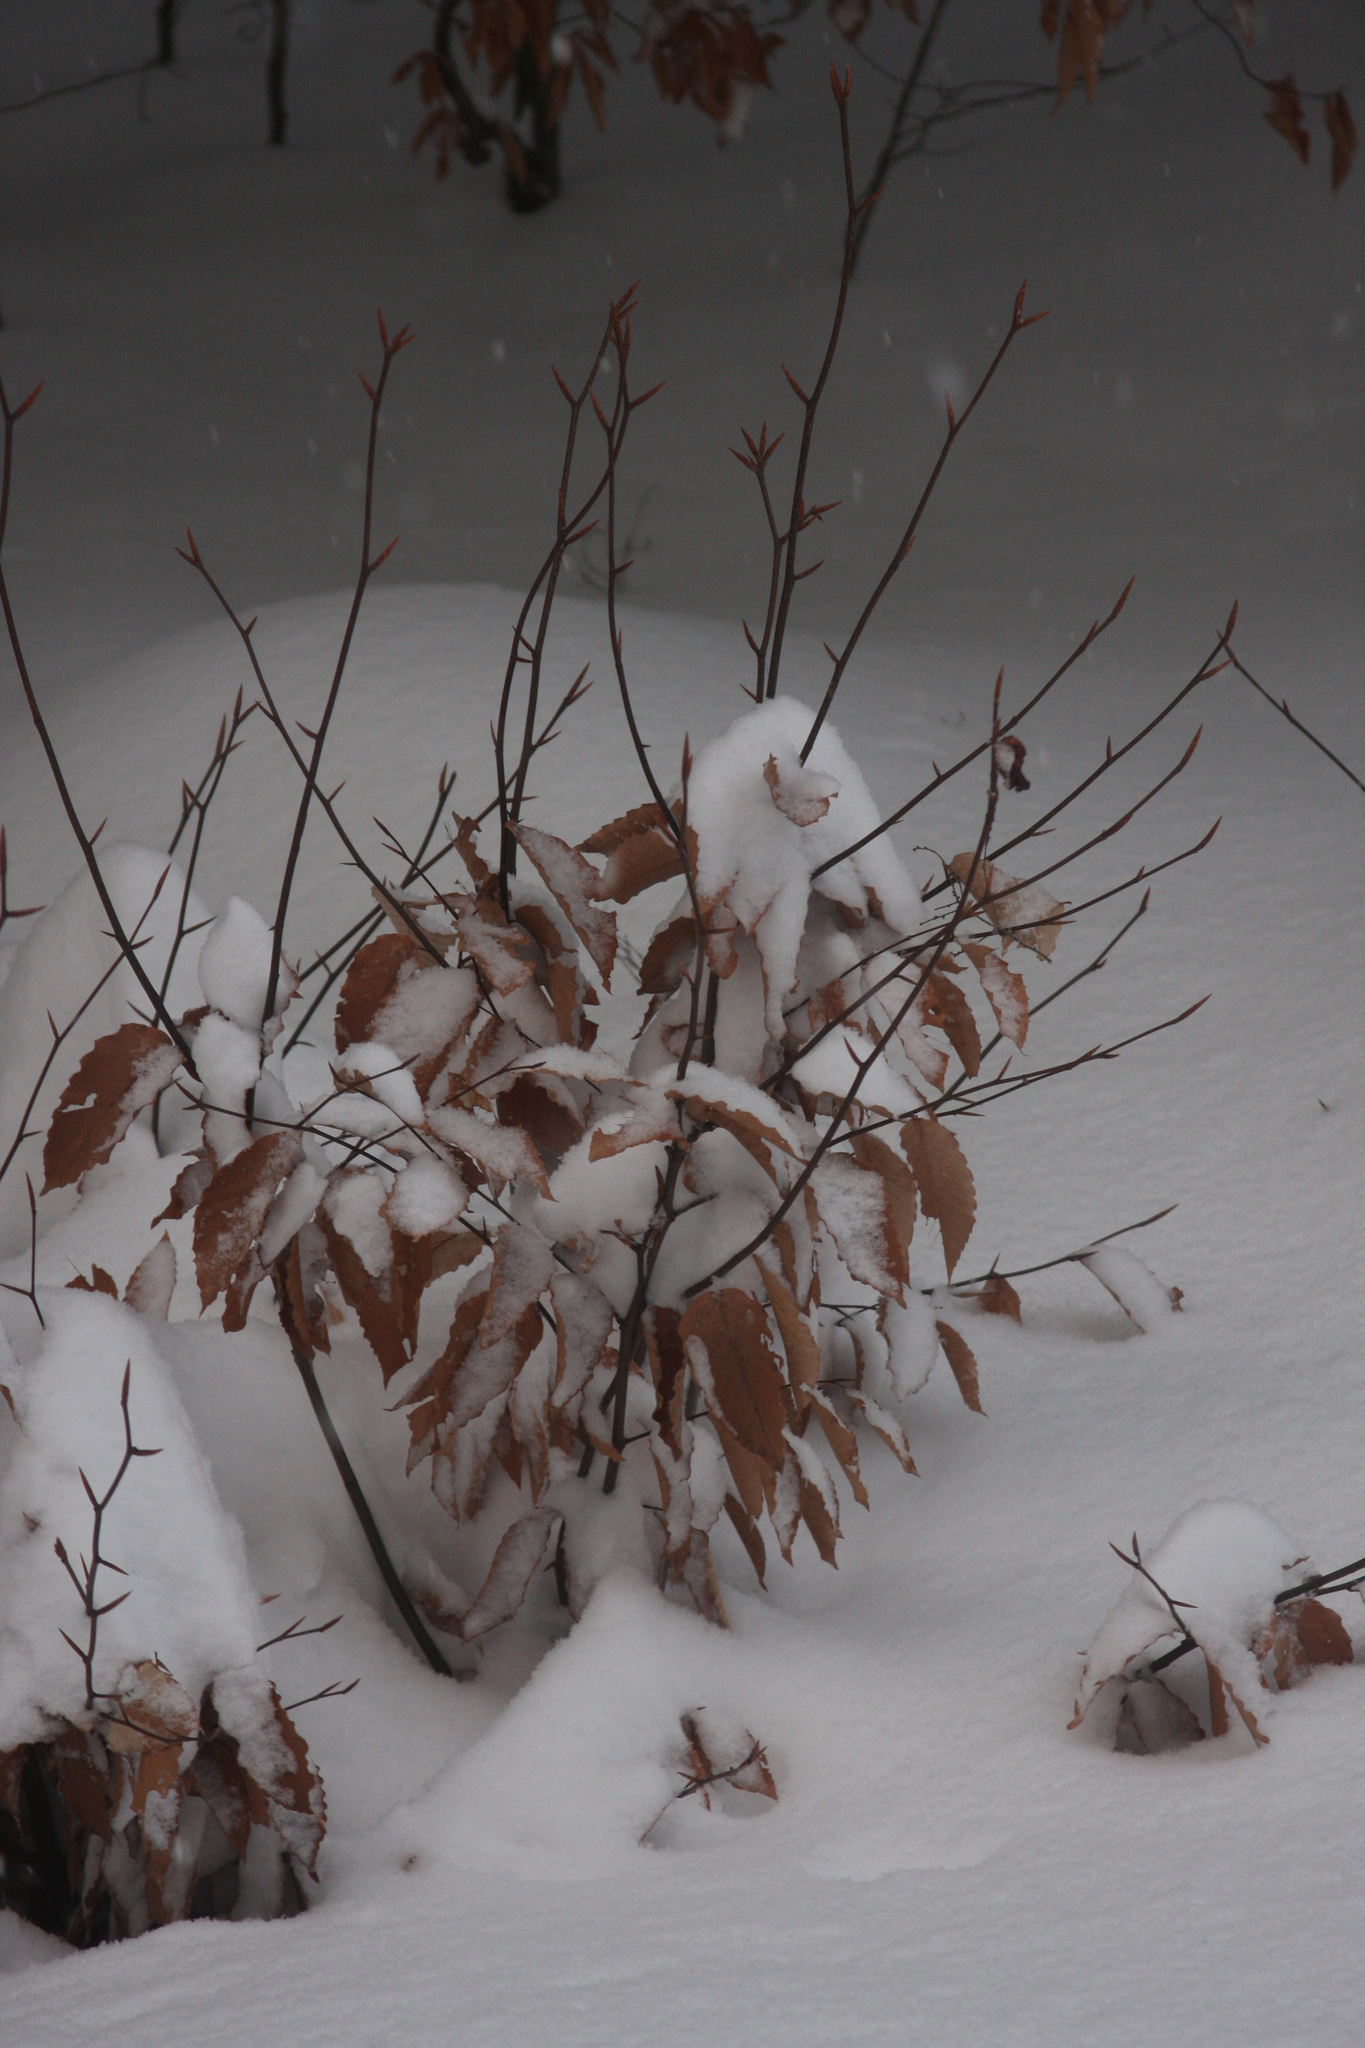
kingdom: Plantae
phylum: Tracheophyta
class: Magnoliopsida
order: Fagales
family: Fagaceae
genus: Fagus
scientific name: Fagus grandifolia
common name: American beech
